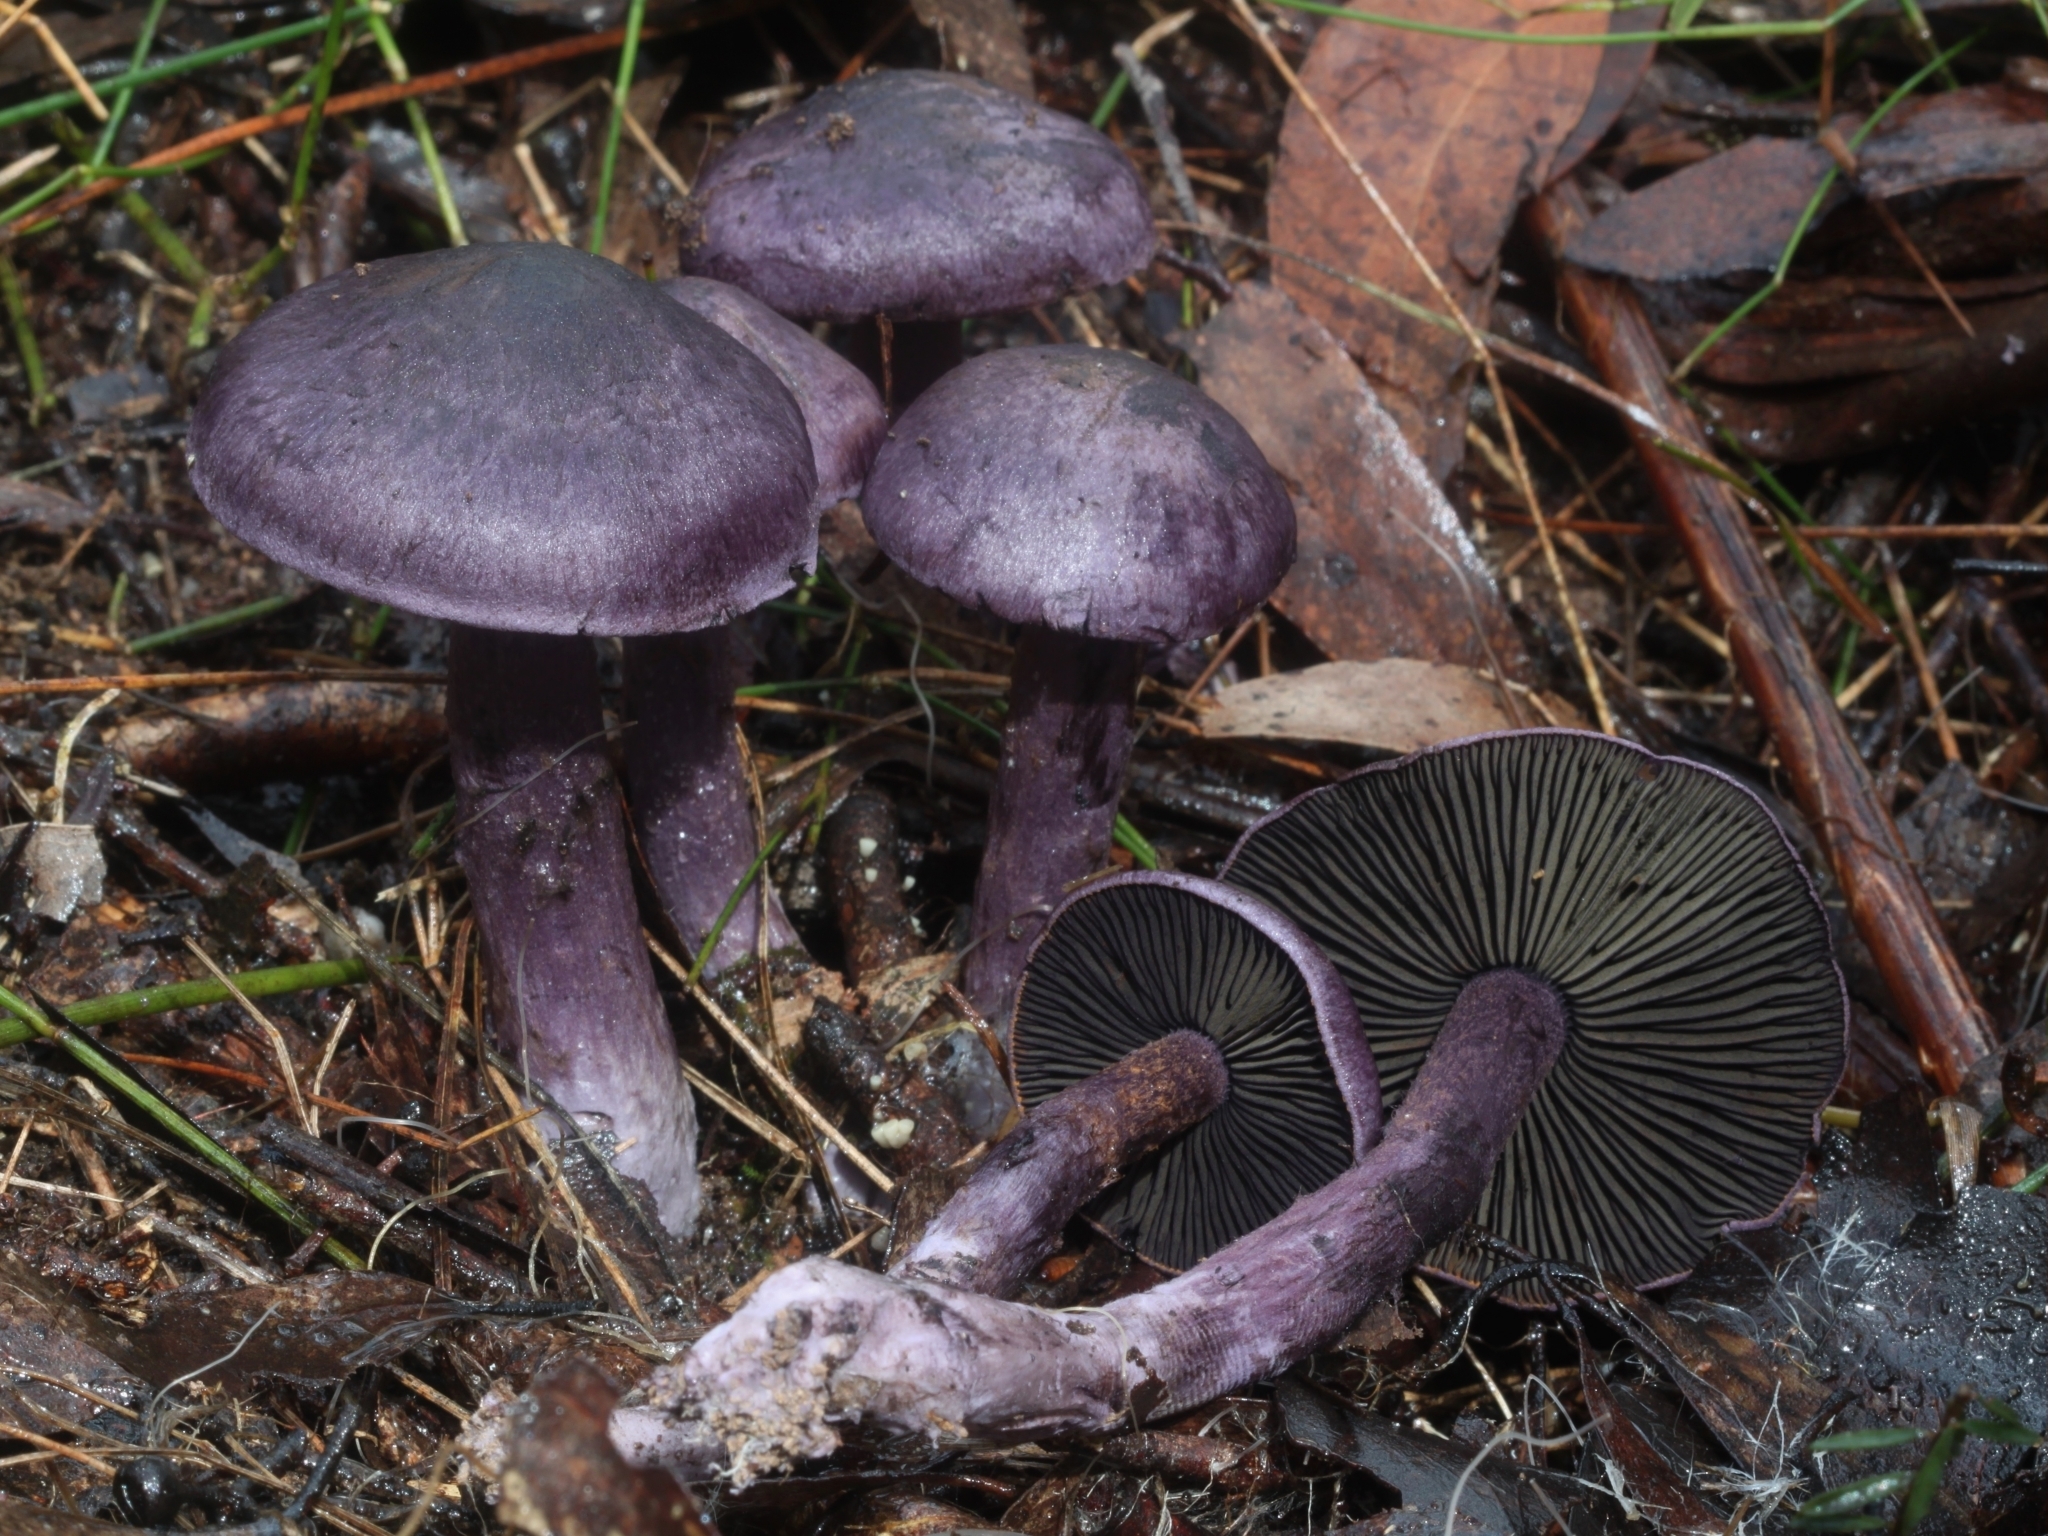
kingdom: Fungi
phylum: Basidiomycota
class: Agaricomycetes
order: Agaricales
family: Cortinariaceae
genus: Cortinarius
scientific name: Cortinarius austroviolaceus
